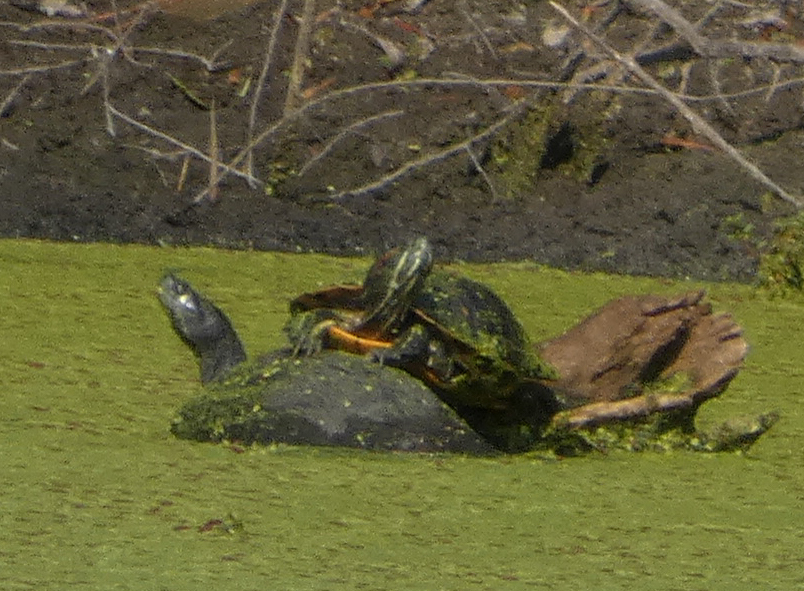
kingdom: Animalia
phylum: Chordata
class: Testudines
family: Emydidae
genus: Trachemys
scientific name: Trachemys scripta
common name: Slider
